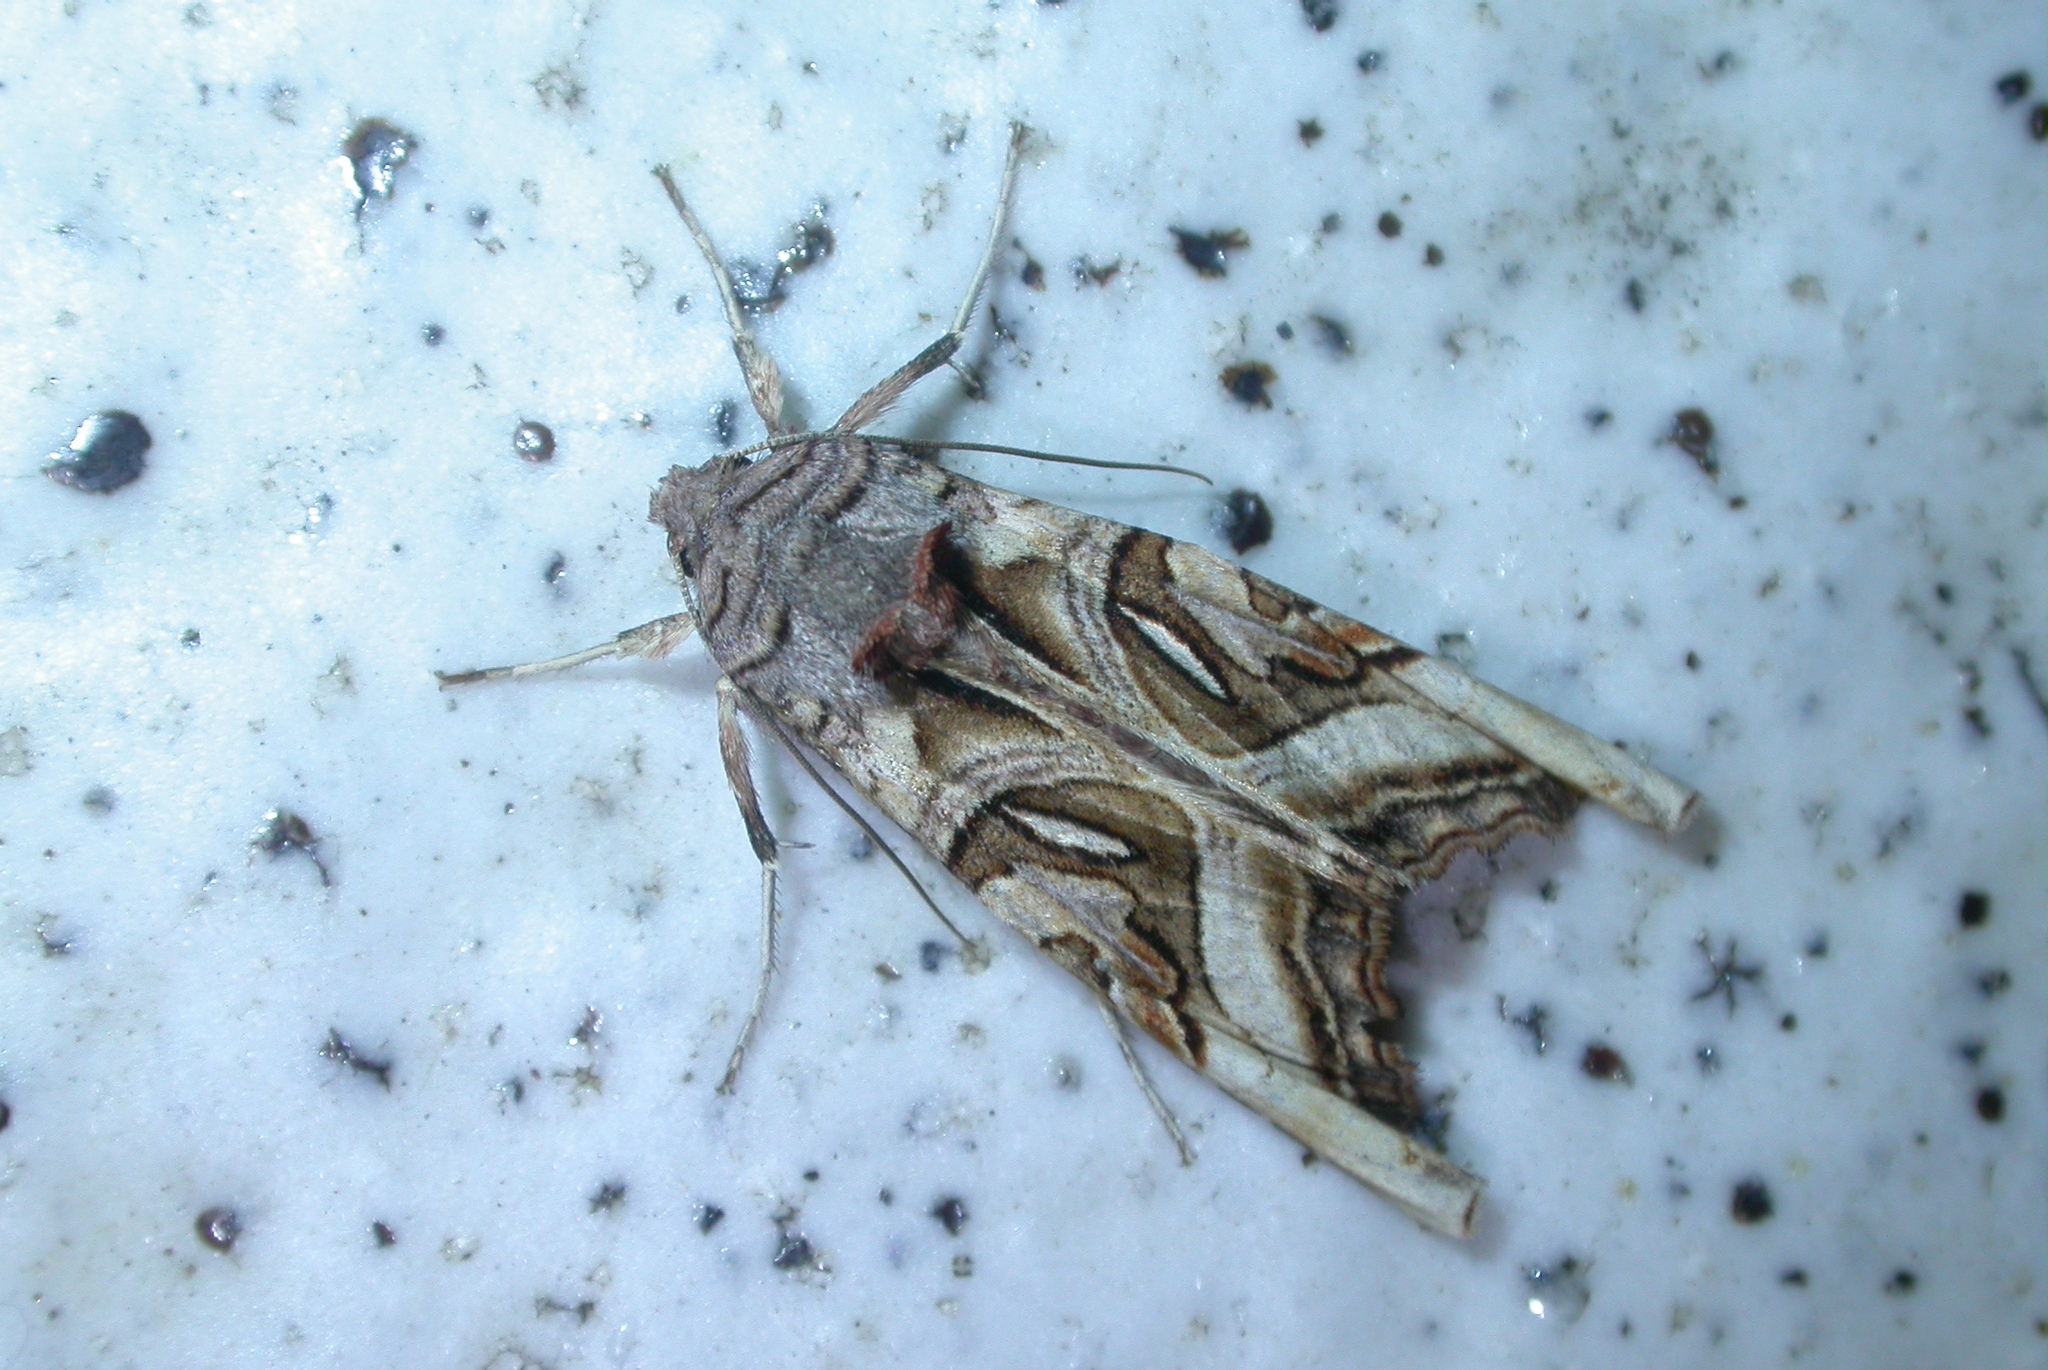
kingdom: Animalia
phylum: Arthropoda
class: Insecta
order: Lepidoptera
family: Noctuidae
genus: Phlogophora
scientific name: Phlogophora clava
